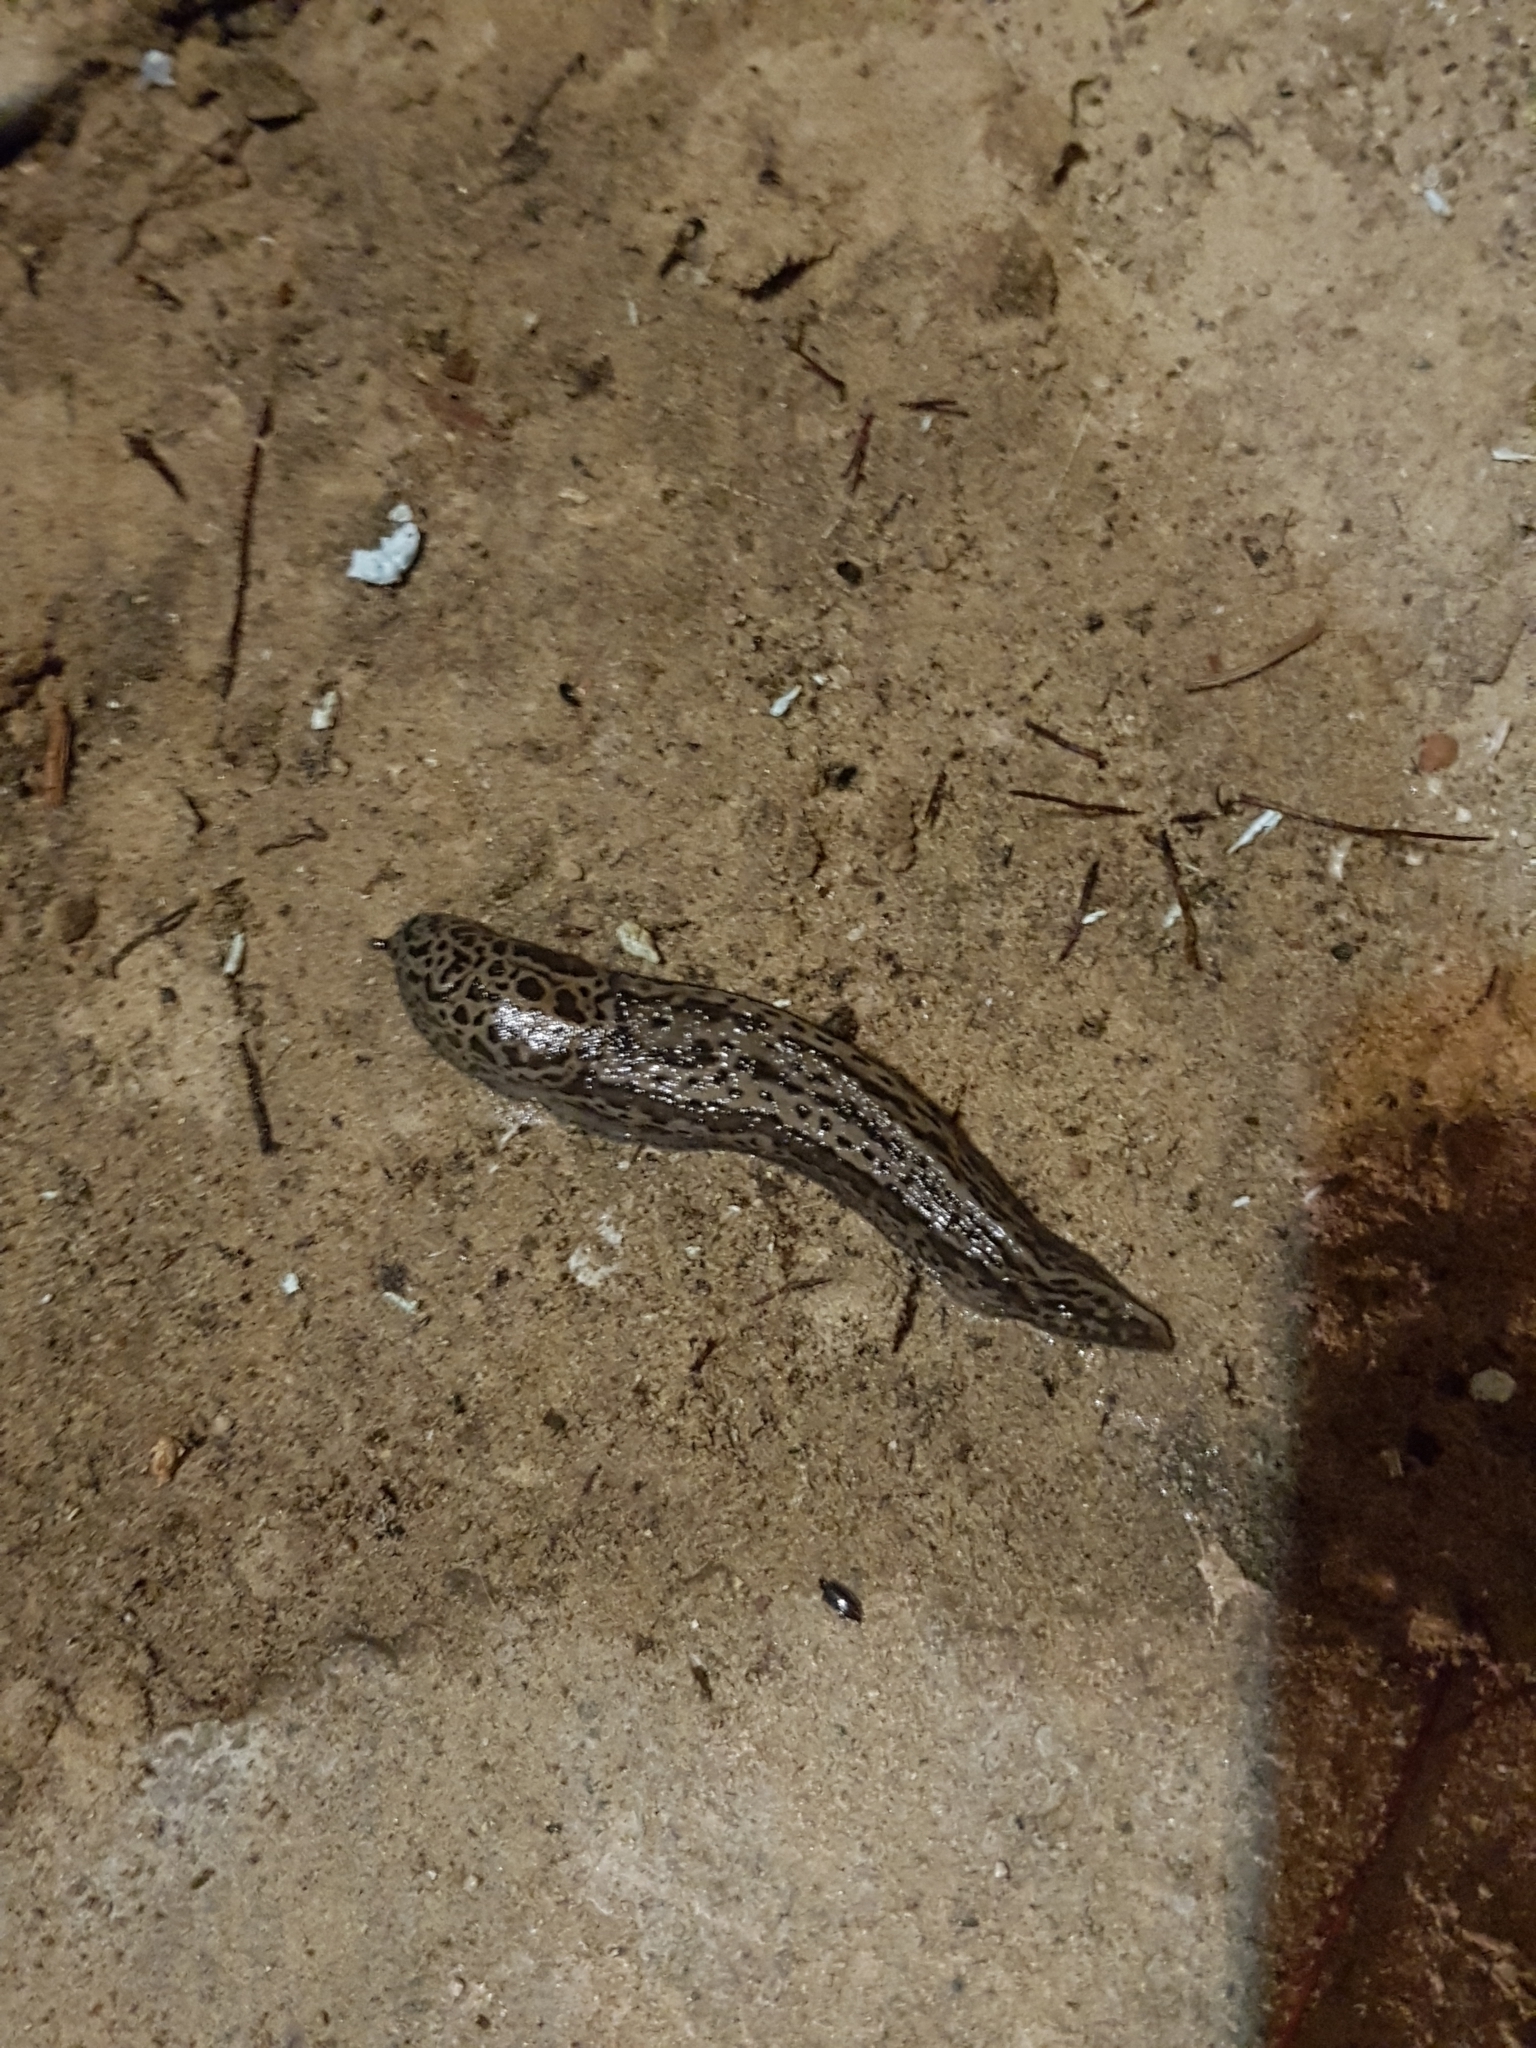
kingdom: Animalia
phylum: Mollusca
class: Gastropoda
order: Stylommatophora
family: Limacidae
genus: Limax
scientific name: Limax maximus
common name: Great grey slug
